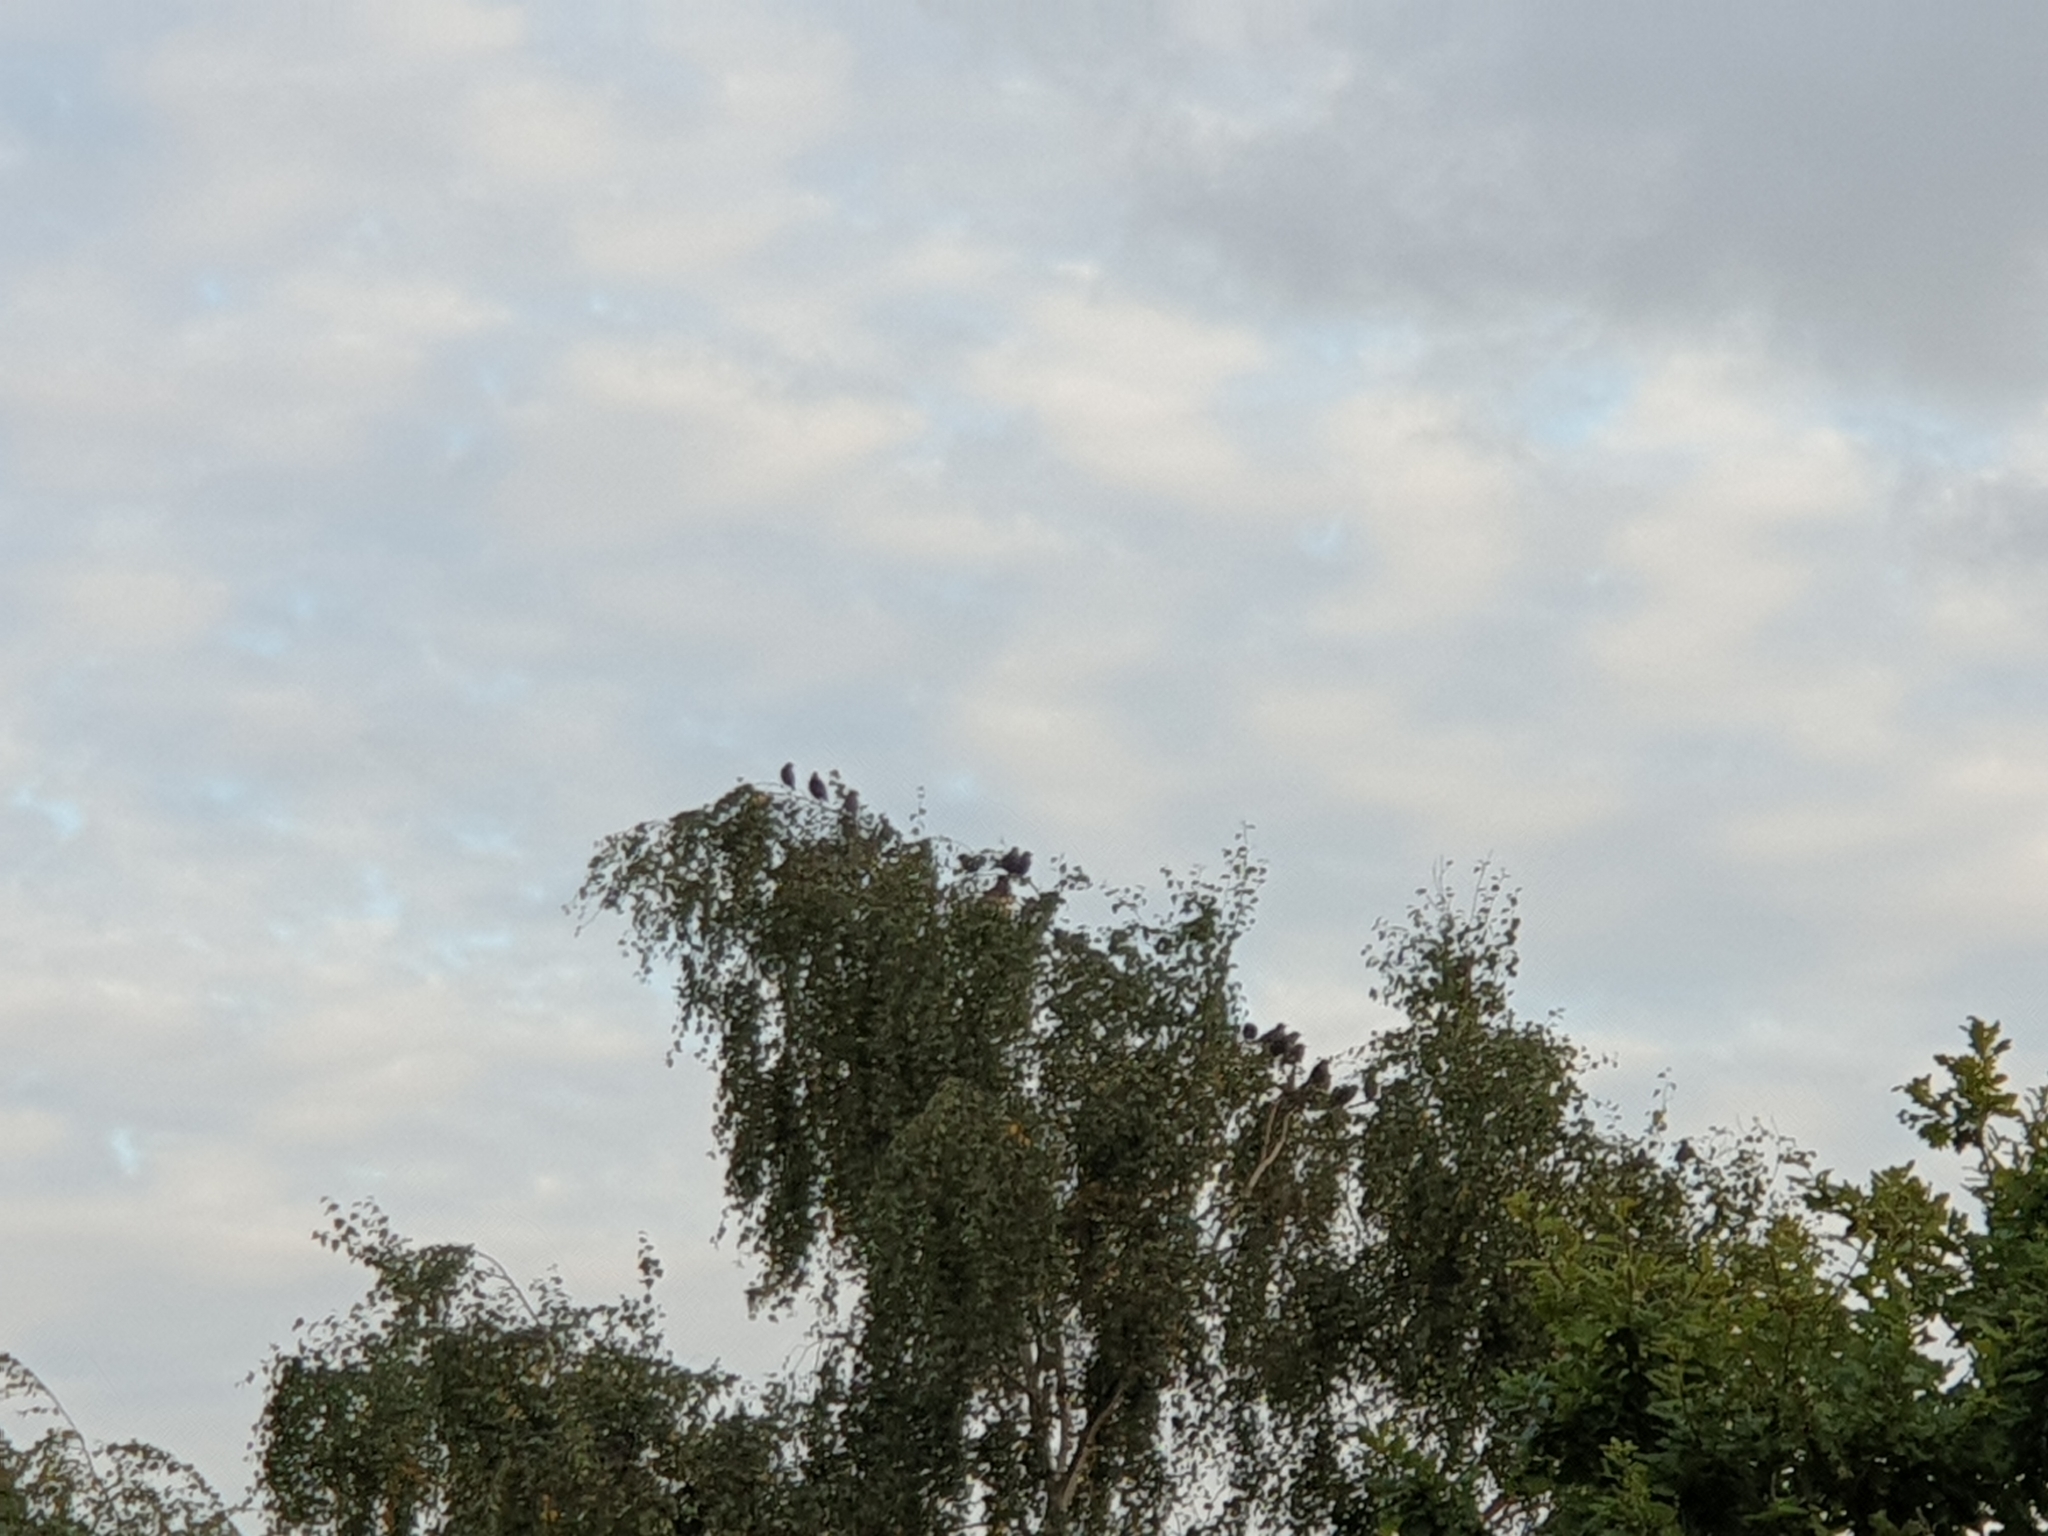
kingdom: Animalia
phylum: Chordata
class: Aves
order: Passeriformes
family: Sturnidae
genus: Sturnus
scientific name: Sturnus vulgaris
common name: Common starling
